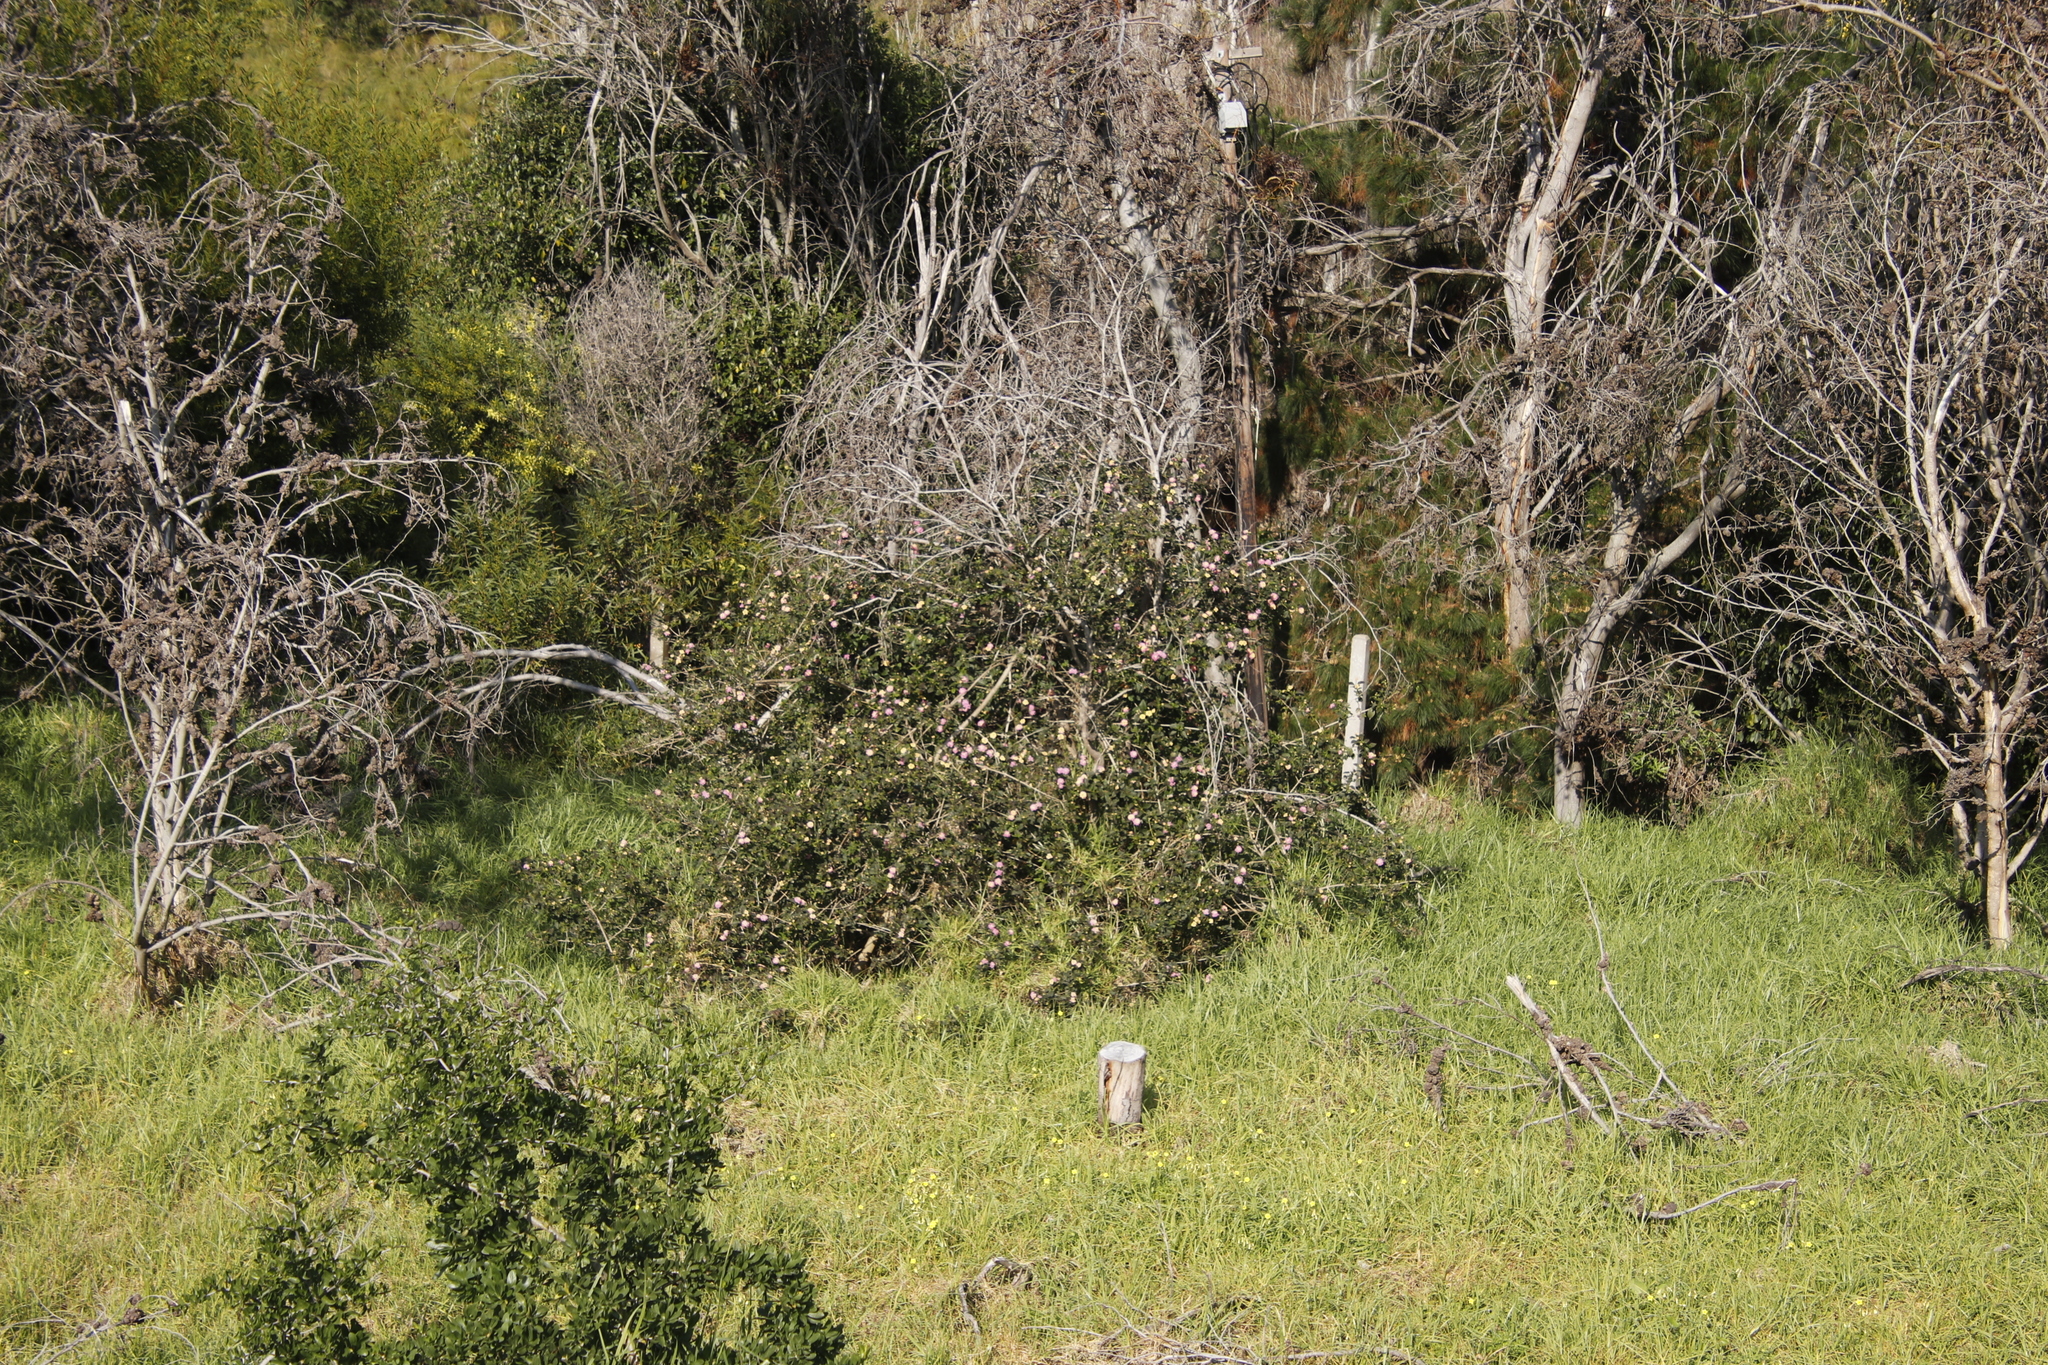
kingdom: Plantae
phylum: Tracheophyta
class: Magnoliopsida
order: Lamiales
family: Verbenaceae
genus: Lantana
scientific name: Lantana camara
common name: Lantana
